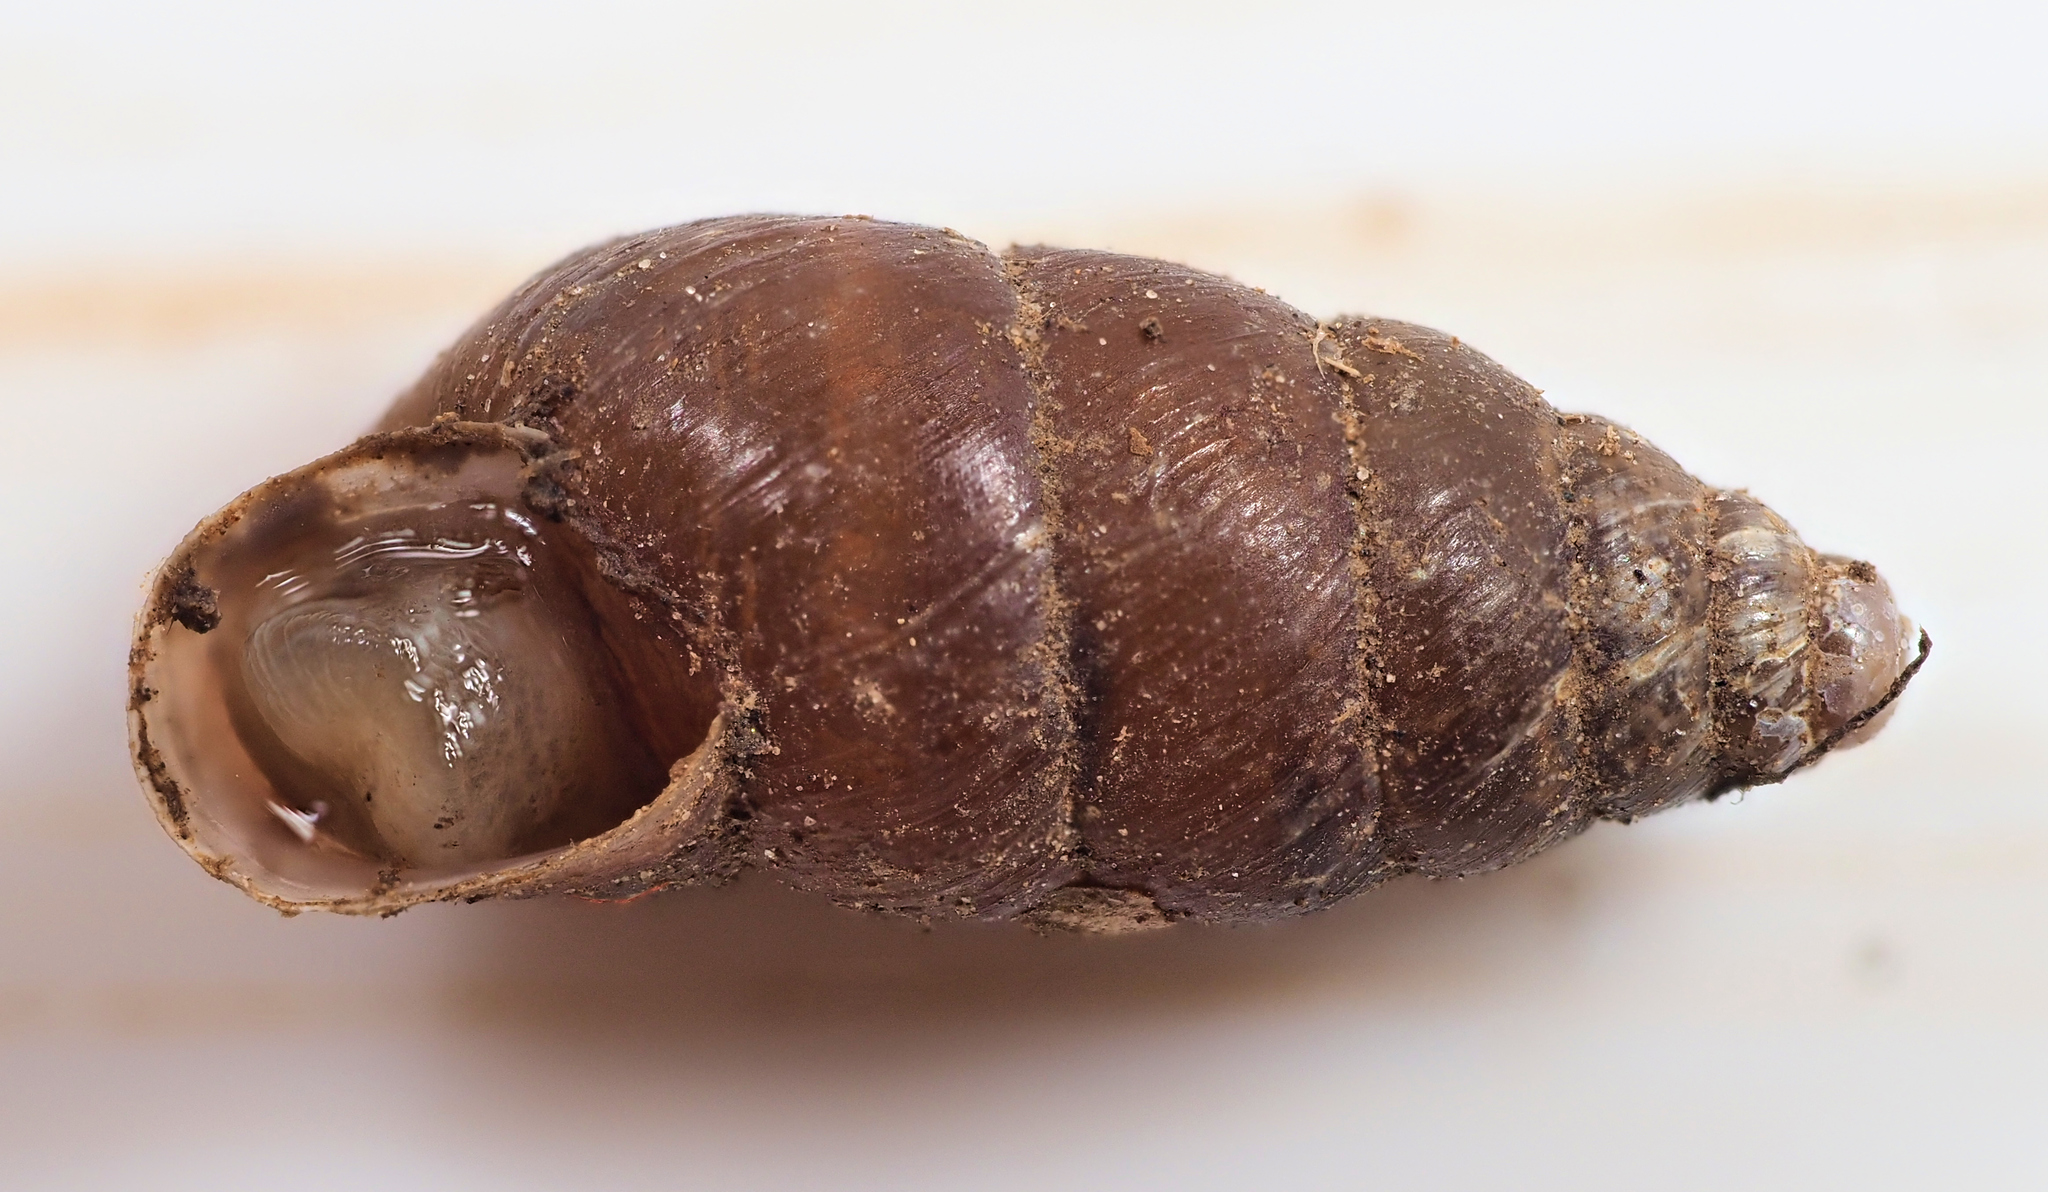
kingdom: Animalia
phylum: Mollusca
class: Gastropoda
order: Stylommatophora
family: Enidae
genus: Merdigera
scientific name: Merdigera obscura
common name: Lesser bulin
